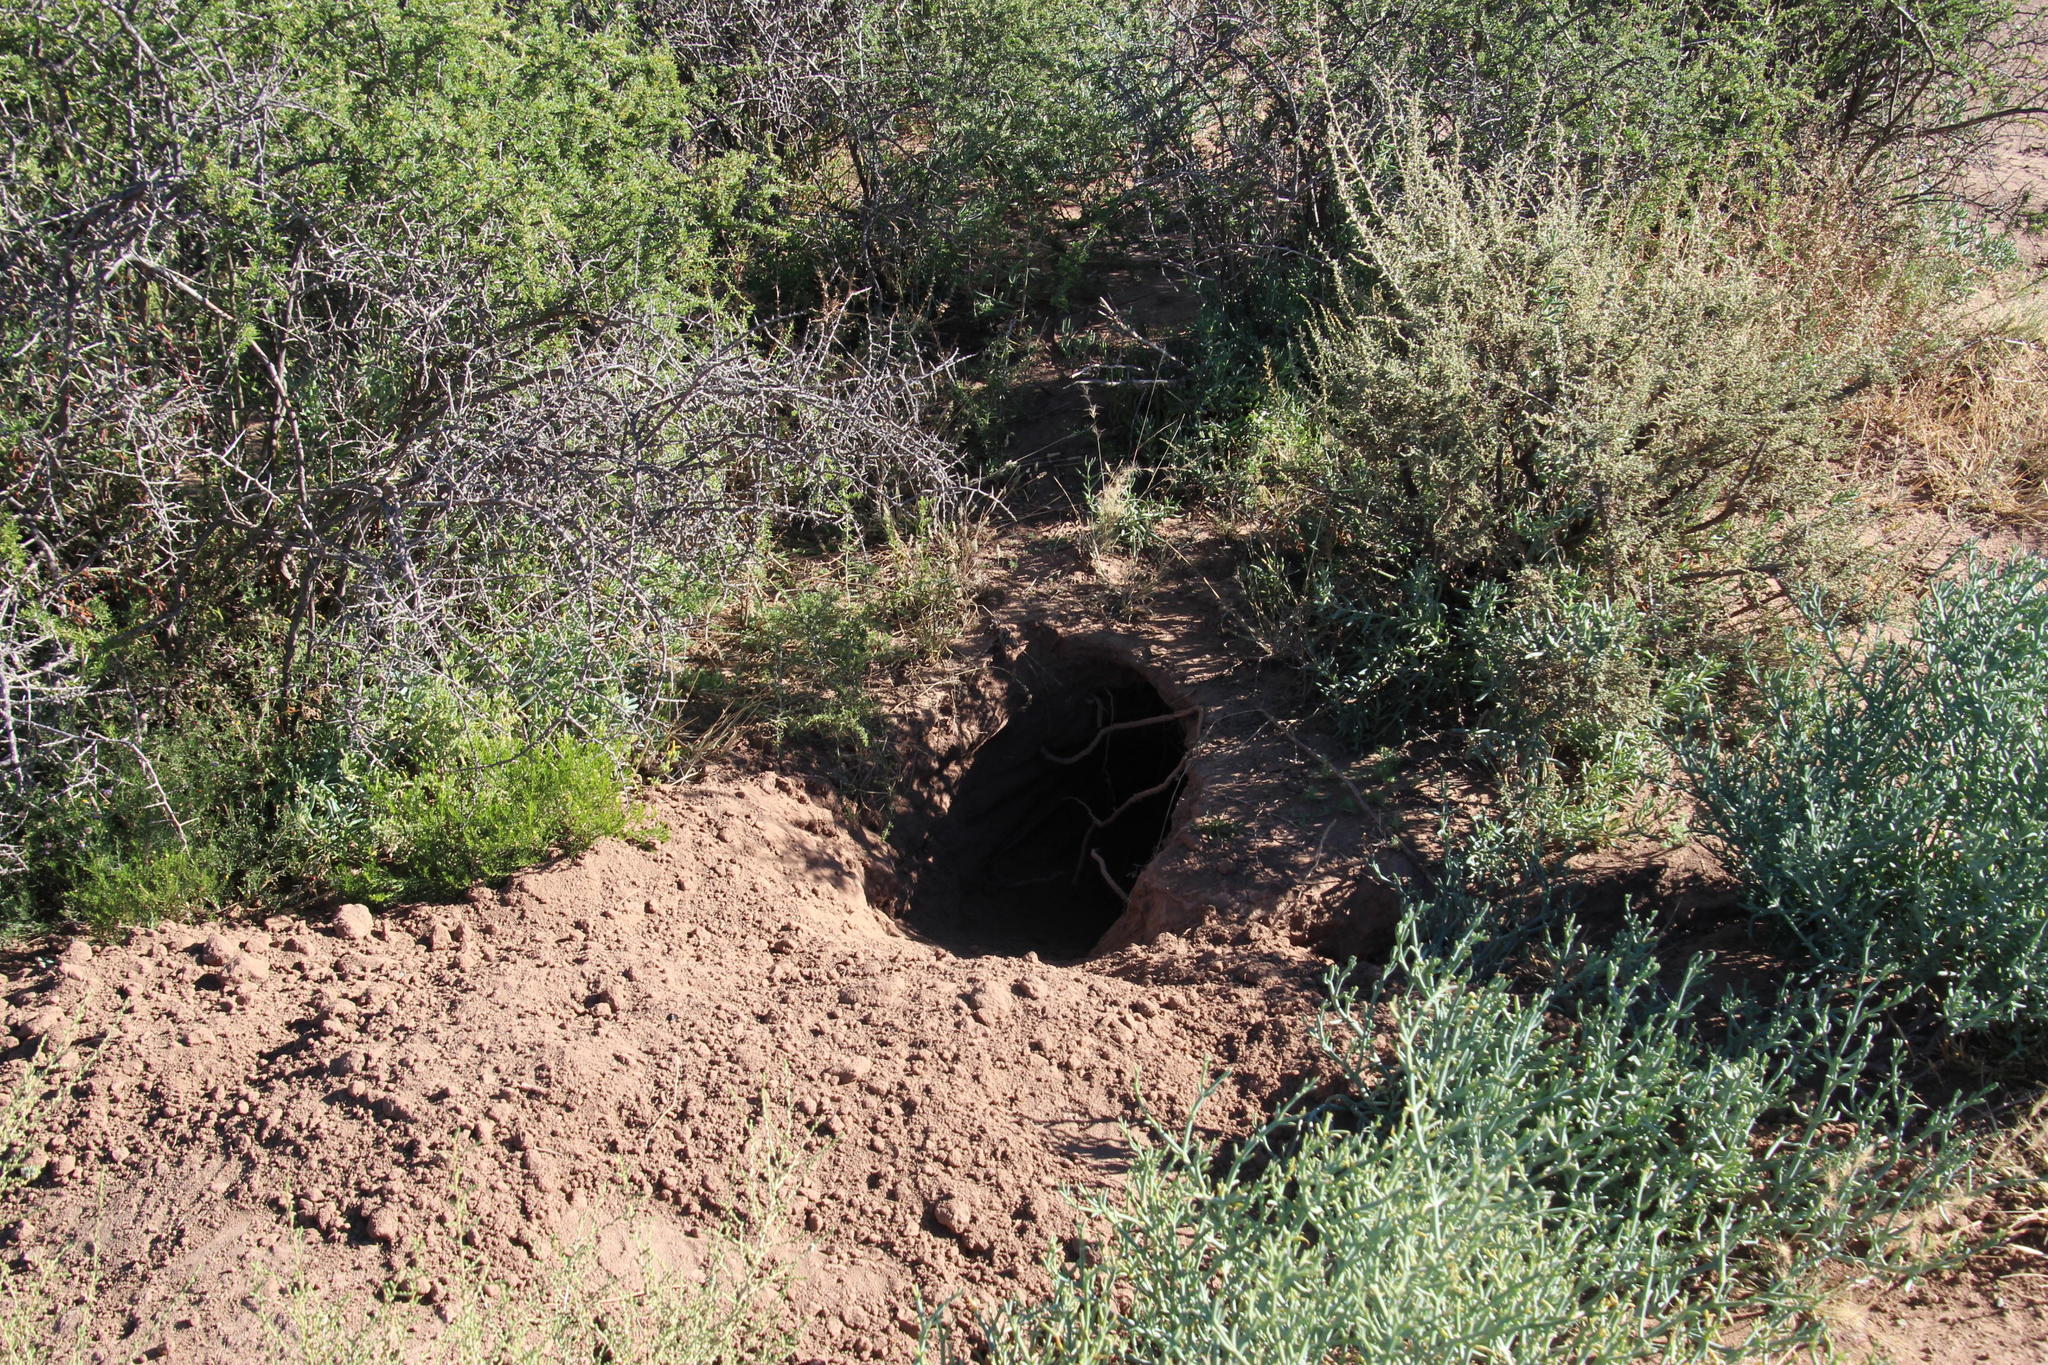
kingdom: Animalia
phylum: Chordata
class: Mammalia
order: Tubulidentata
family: Orycteropodidae
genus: Orycteropus
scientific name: Orycteropus afer
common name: Aardvark
